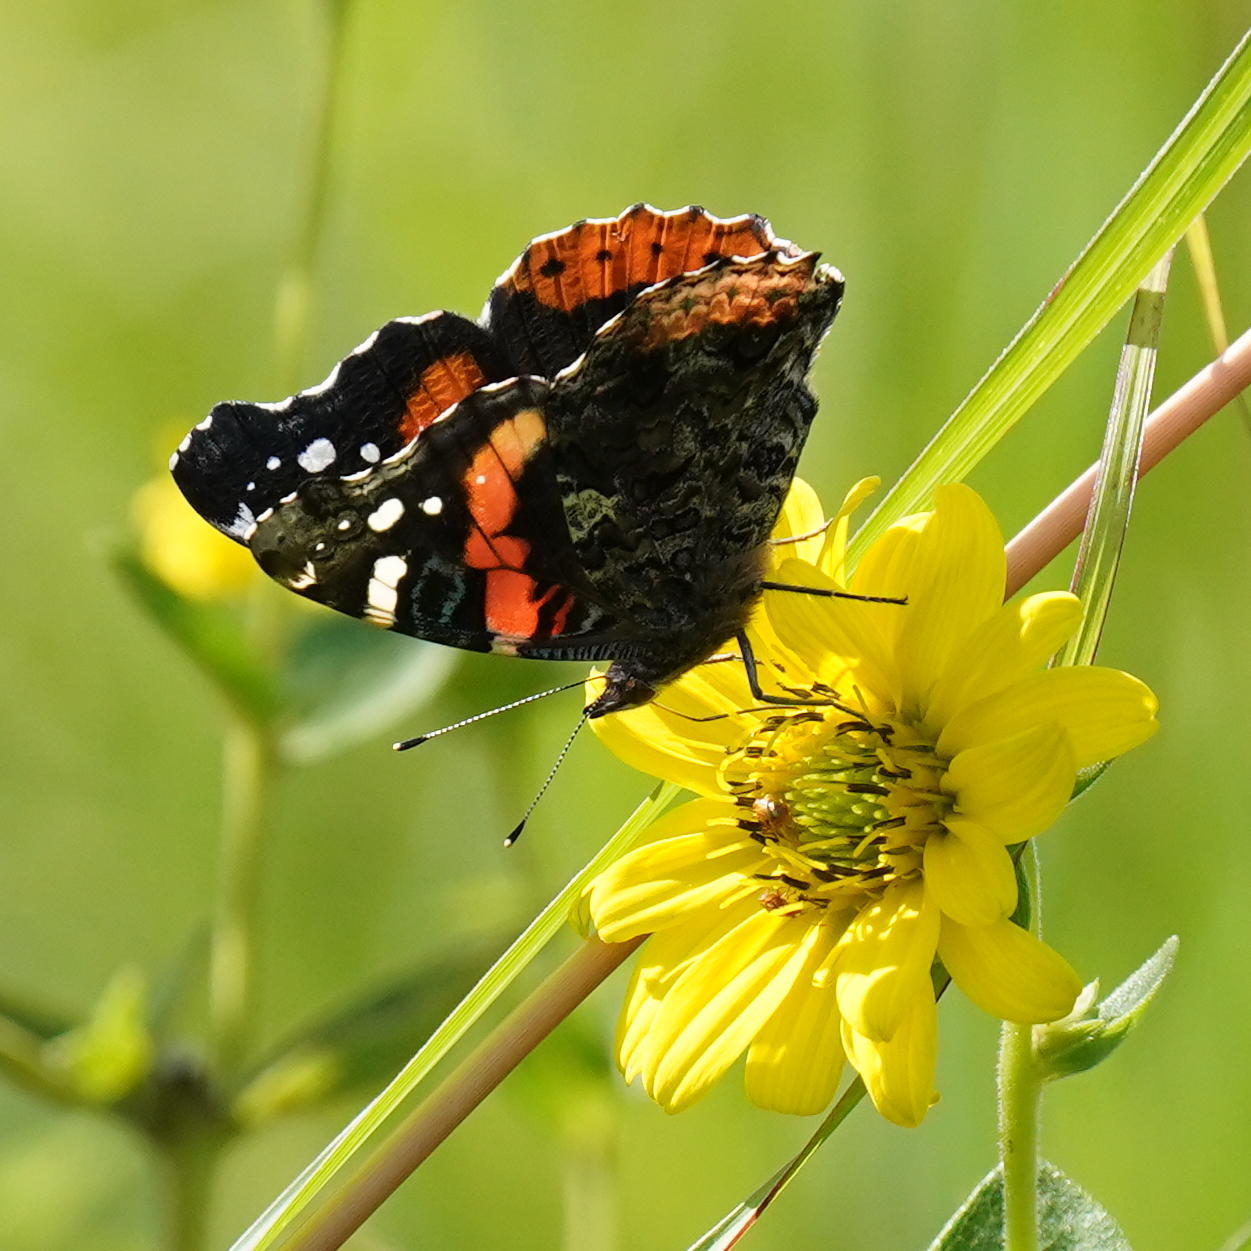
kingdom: Animalia
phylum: Arthropoda
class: Insecta
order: Lepidoptera
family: Nymphalidae
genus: Vanessa
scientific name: Vanessa atalanta
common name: Red admiral
